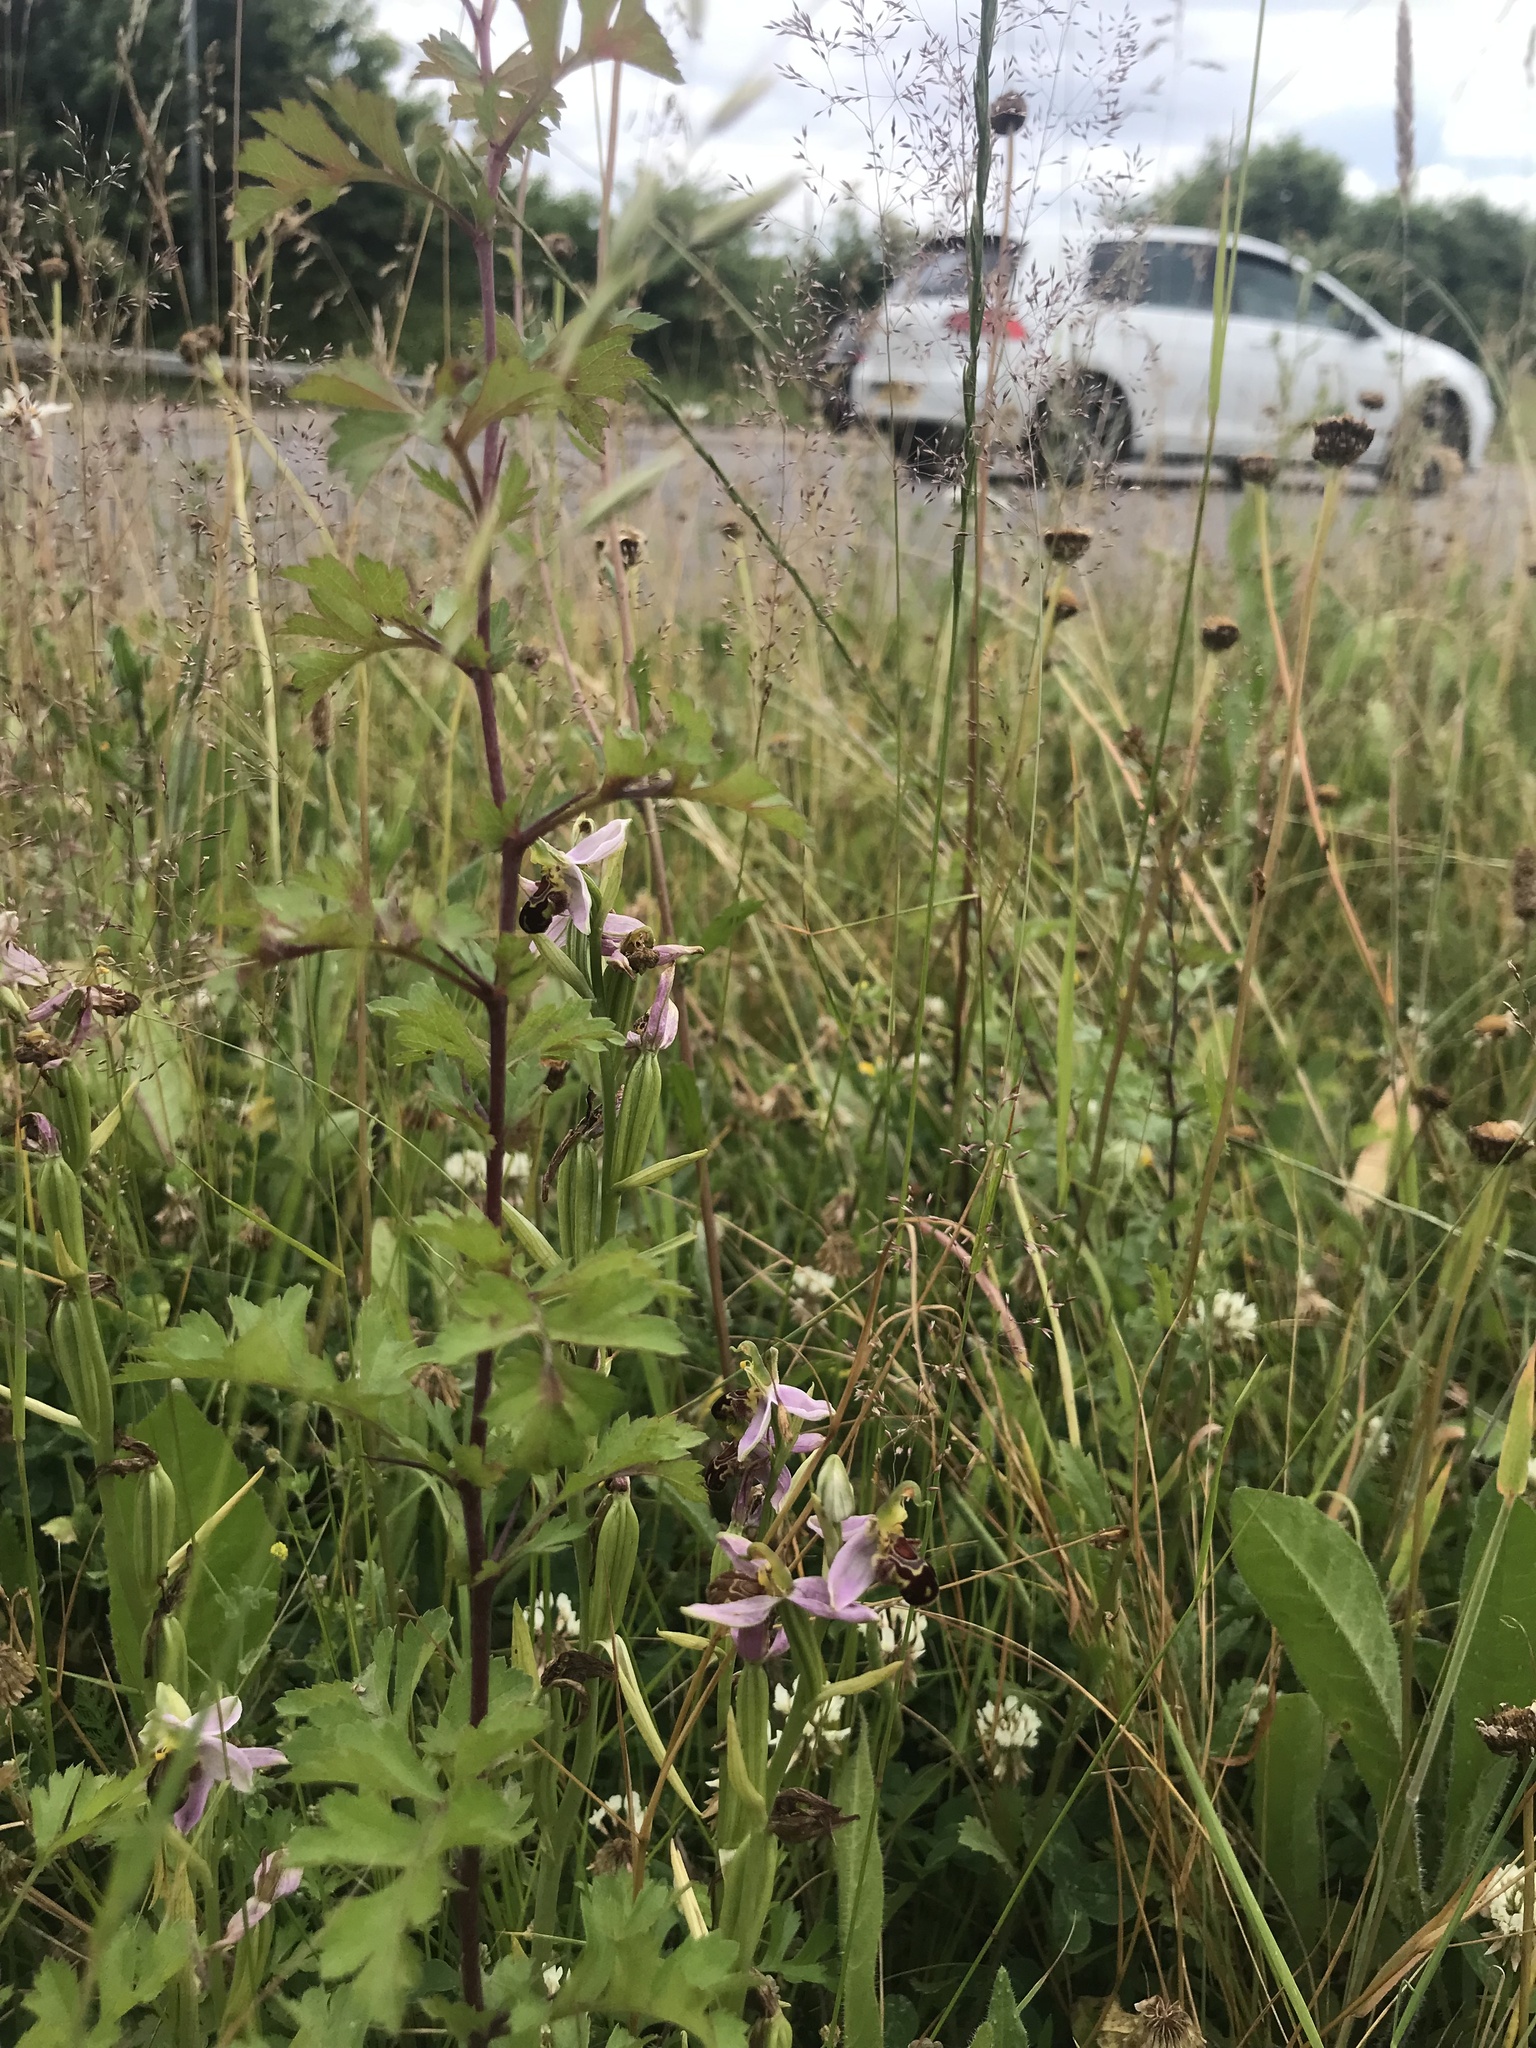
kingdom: Plantae
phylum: Tracheophyta
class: Liliopsida
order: Asparagales
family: Orchidaceae
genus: Ophrys
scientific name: Ophrys apifera
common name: Bee orchid
